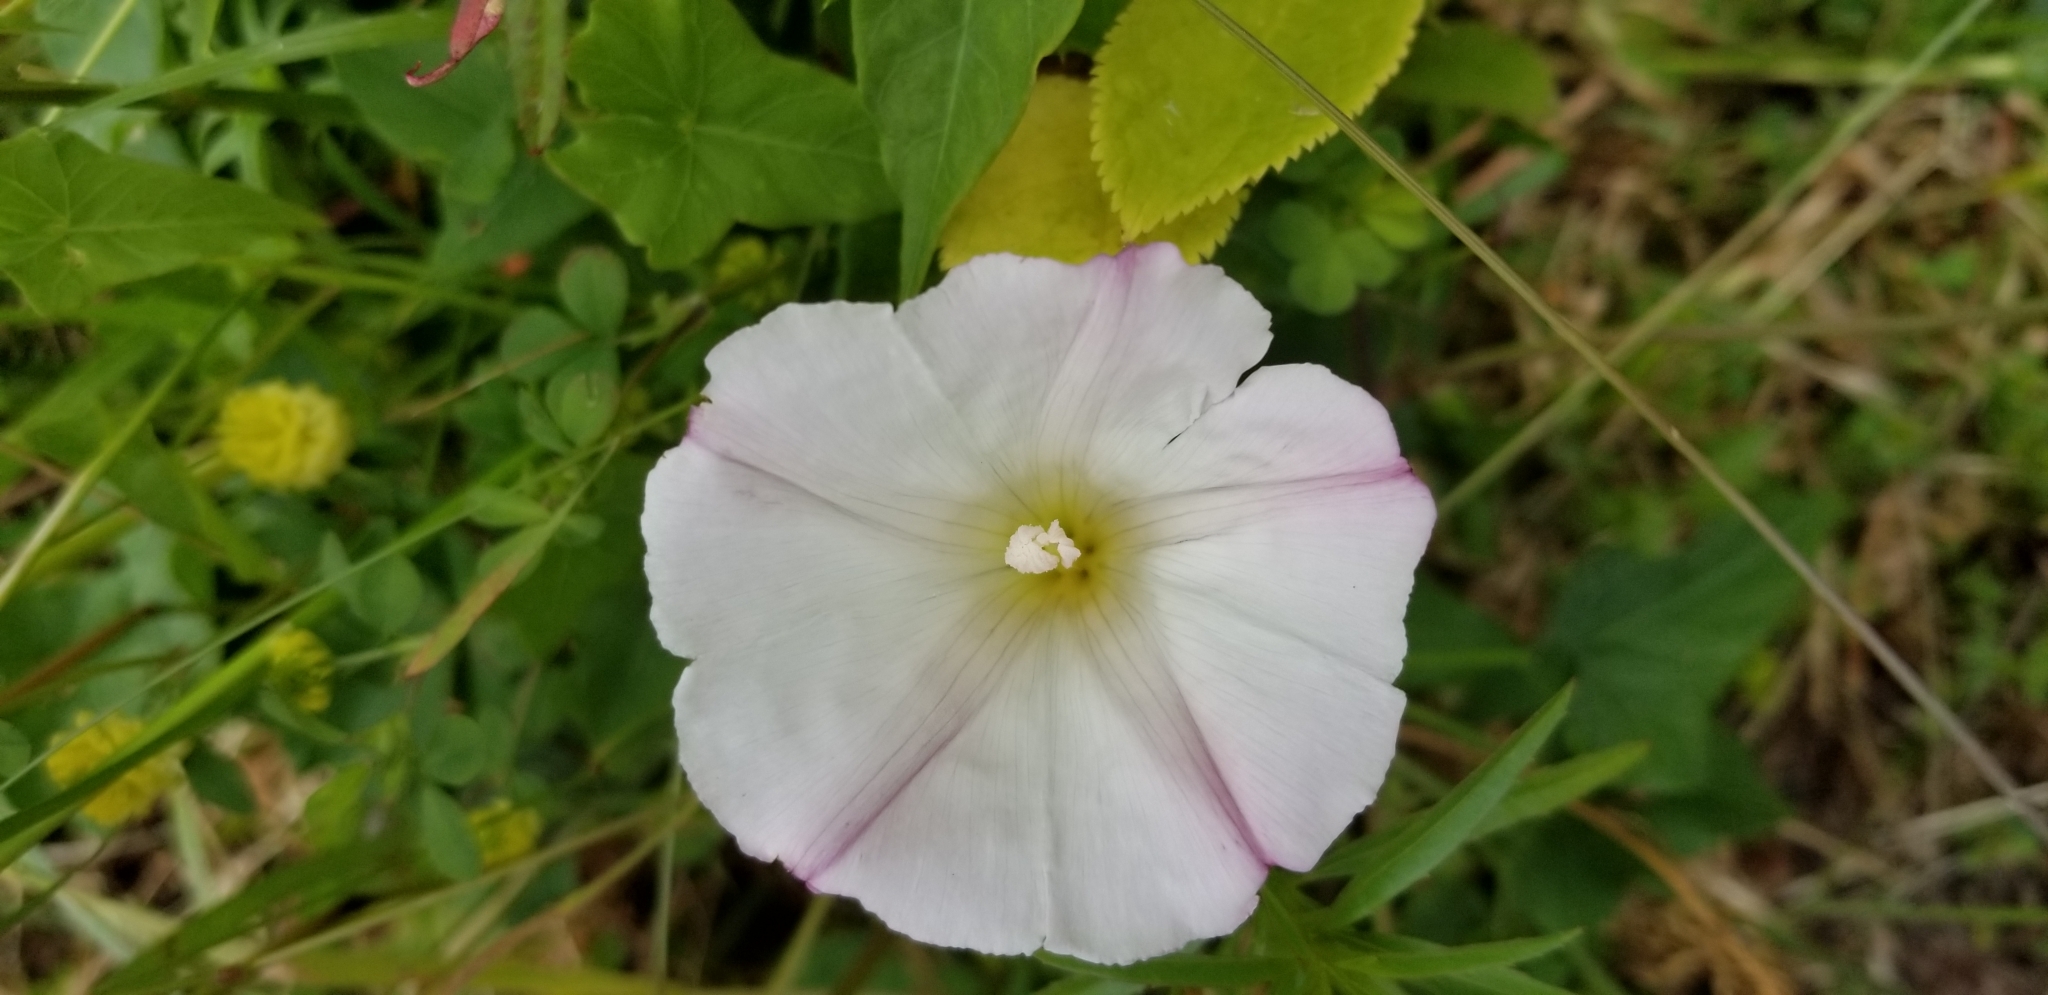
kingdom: Plantae
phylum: Tracheophyta
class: Magnoliopsida
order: Solanales
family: Convolvulaceae
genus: Calystegia
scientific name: Calystegia purpurata
